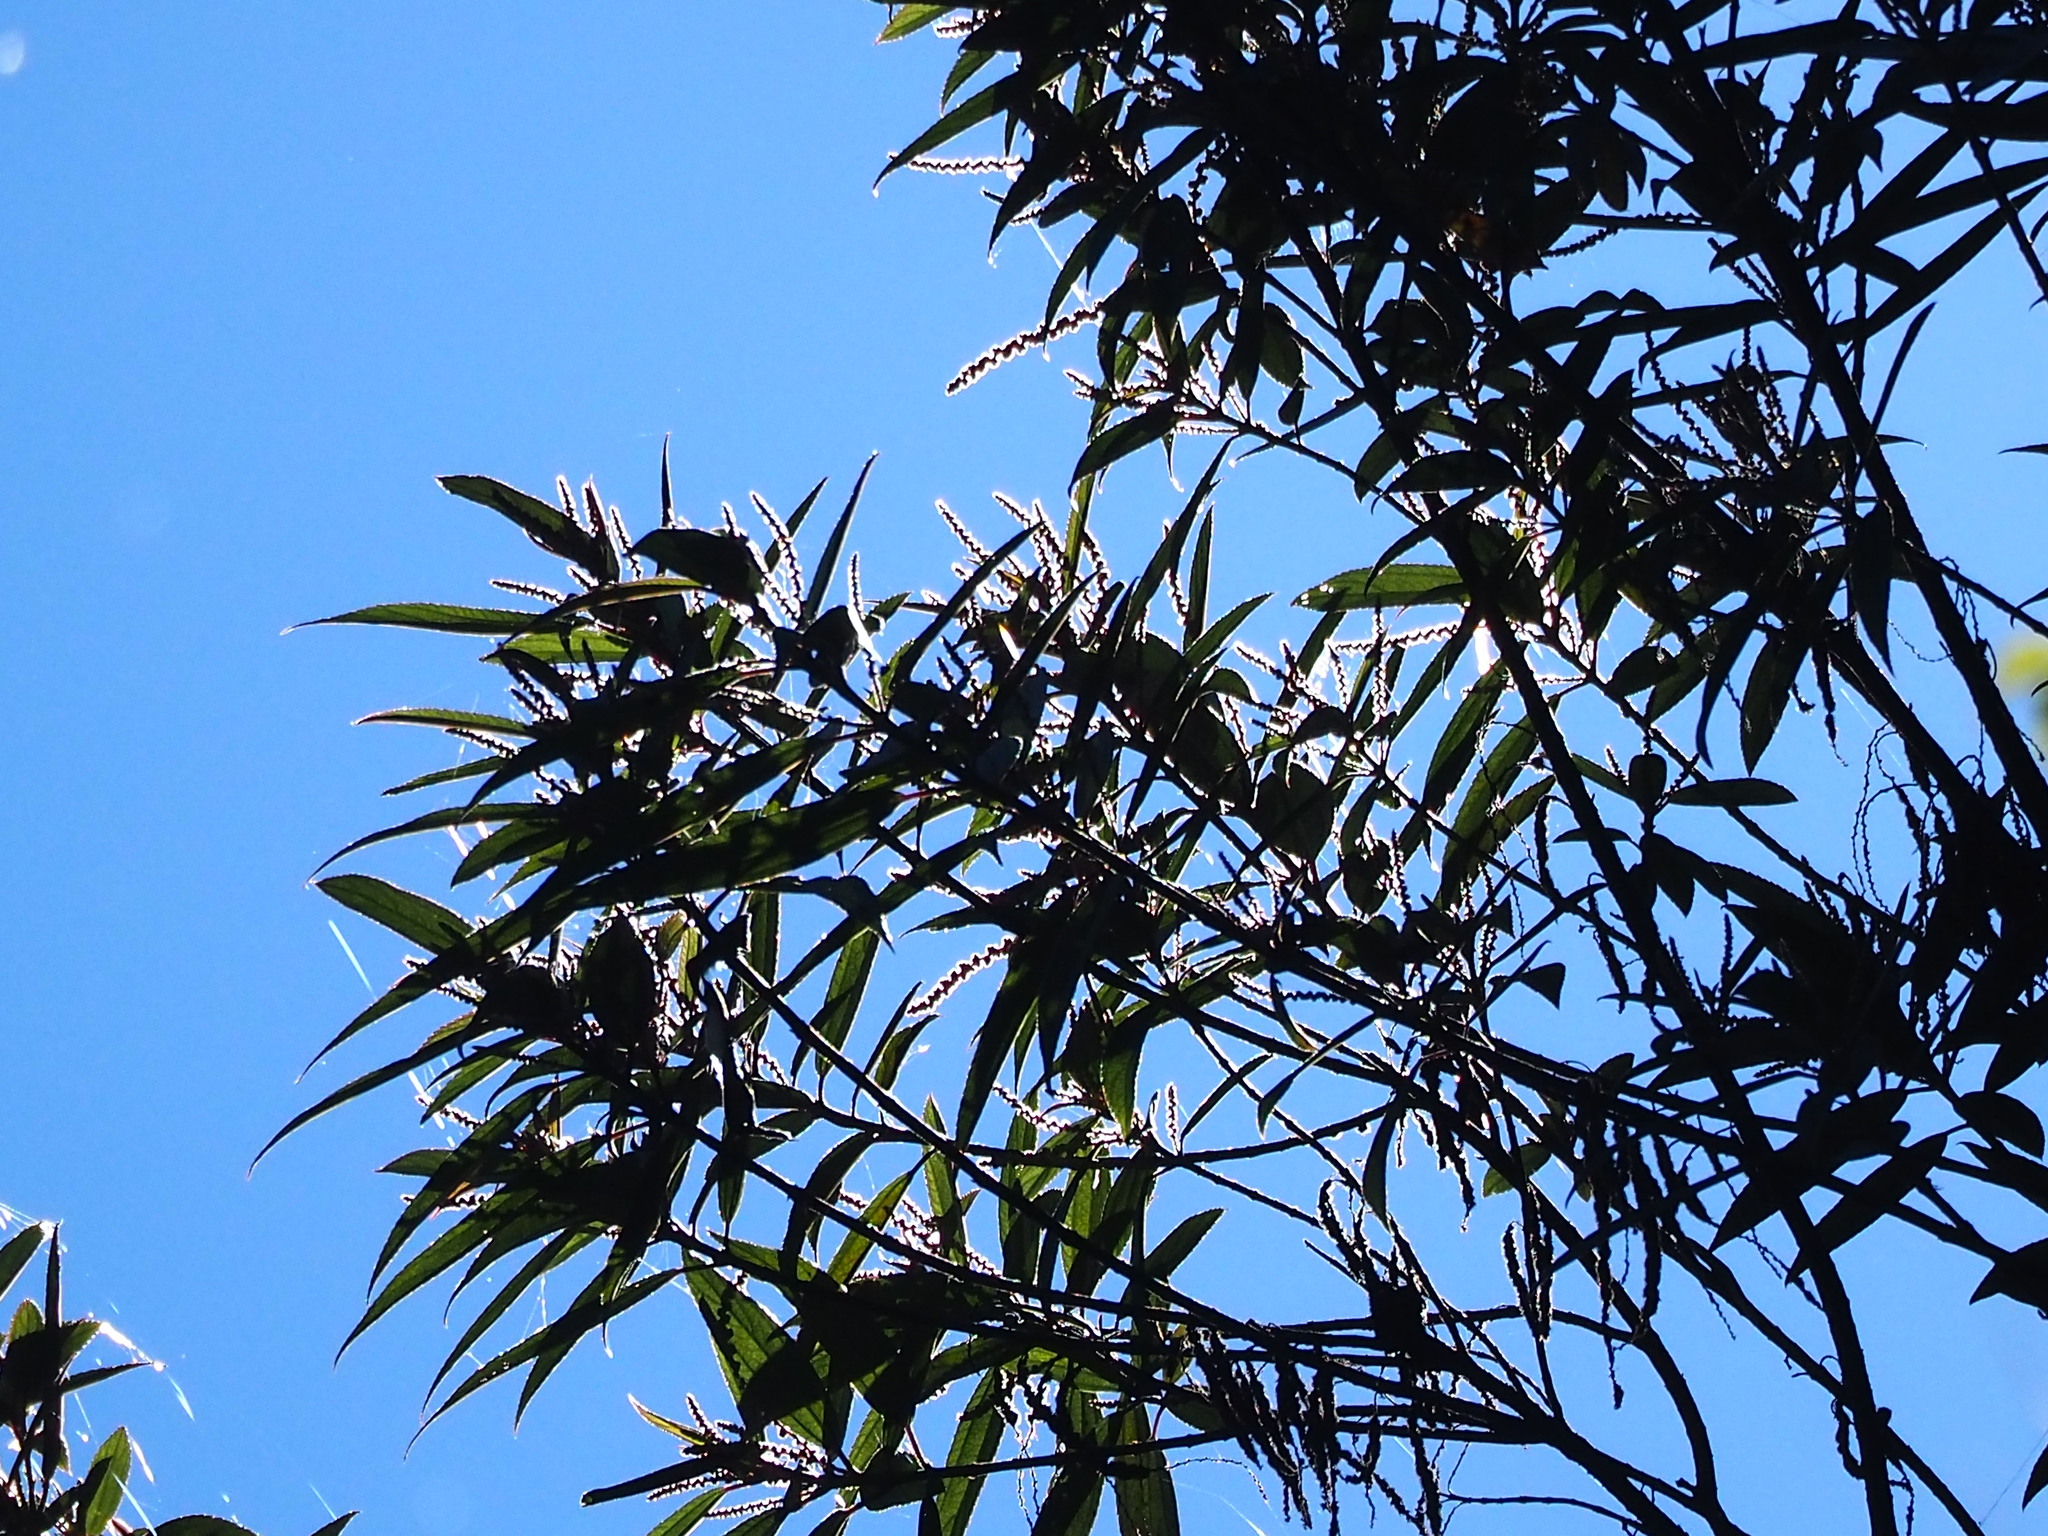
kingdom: Plantae
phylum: Tracheophyta
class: Magnoliopsida
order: Rosales
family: Urticaceae
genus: Boehmeria
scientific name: Boehmeria densiflora
